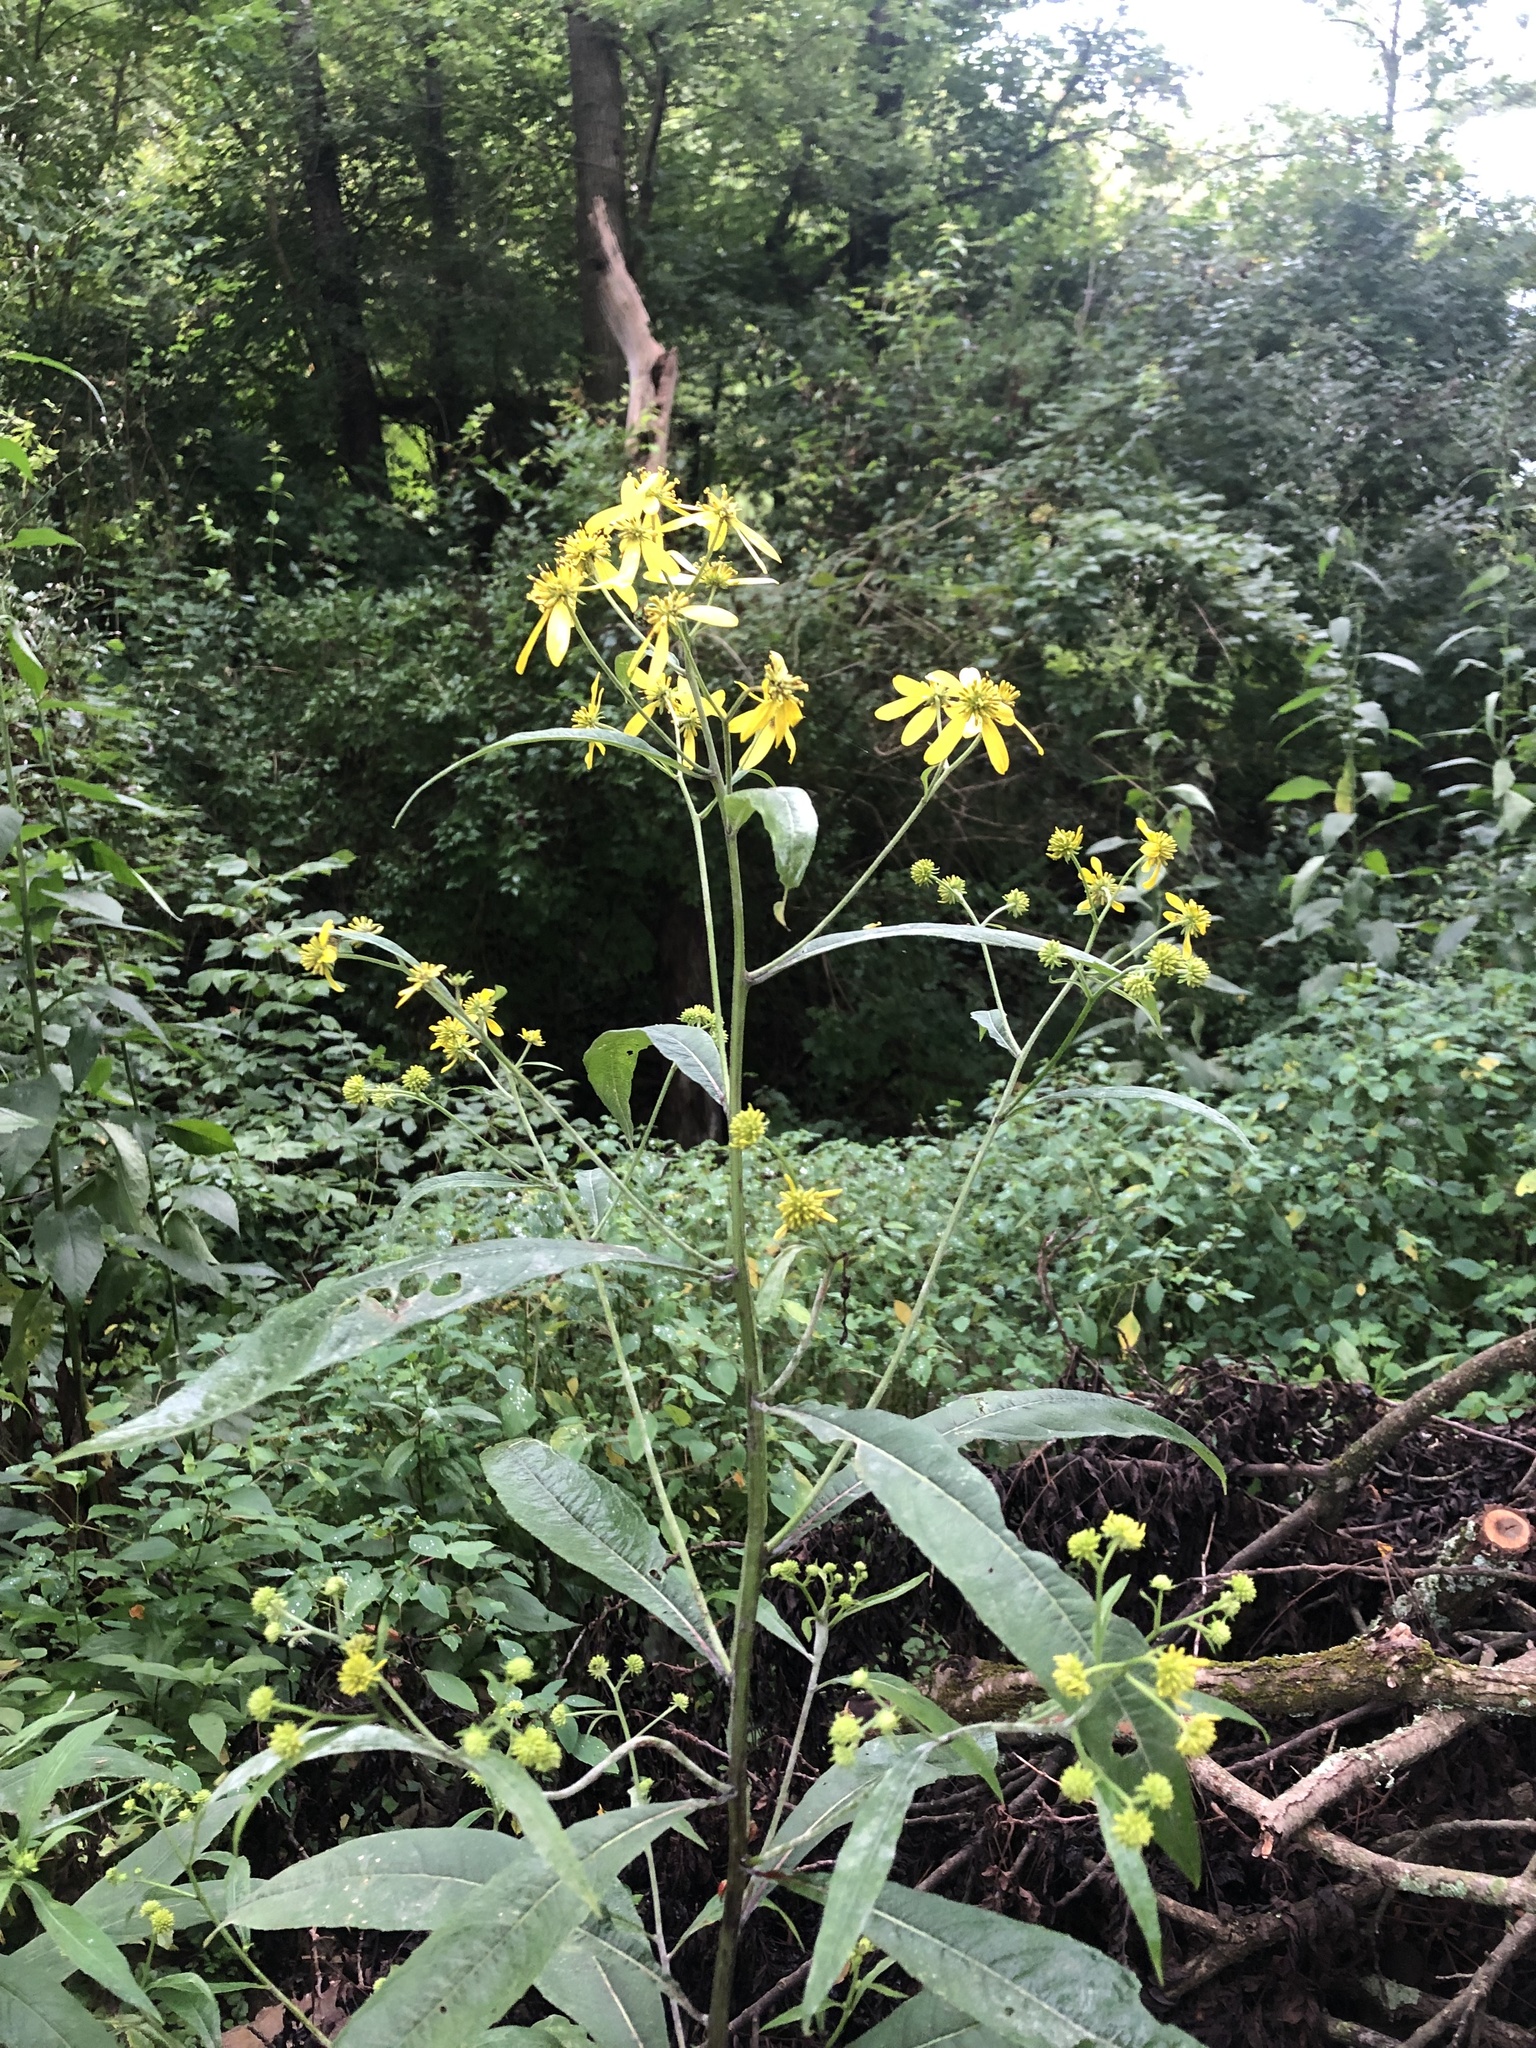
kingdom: Plantae
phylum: Tracheophyta
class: Magnoliopsida
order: Asterales
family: Asteraceae
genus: Verbesina
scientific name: Verbesina alternifolia
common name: Wingstem
